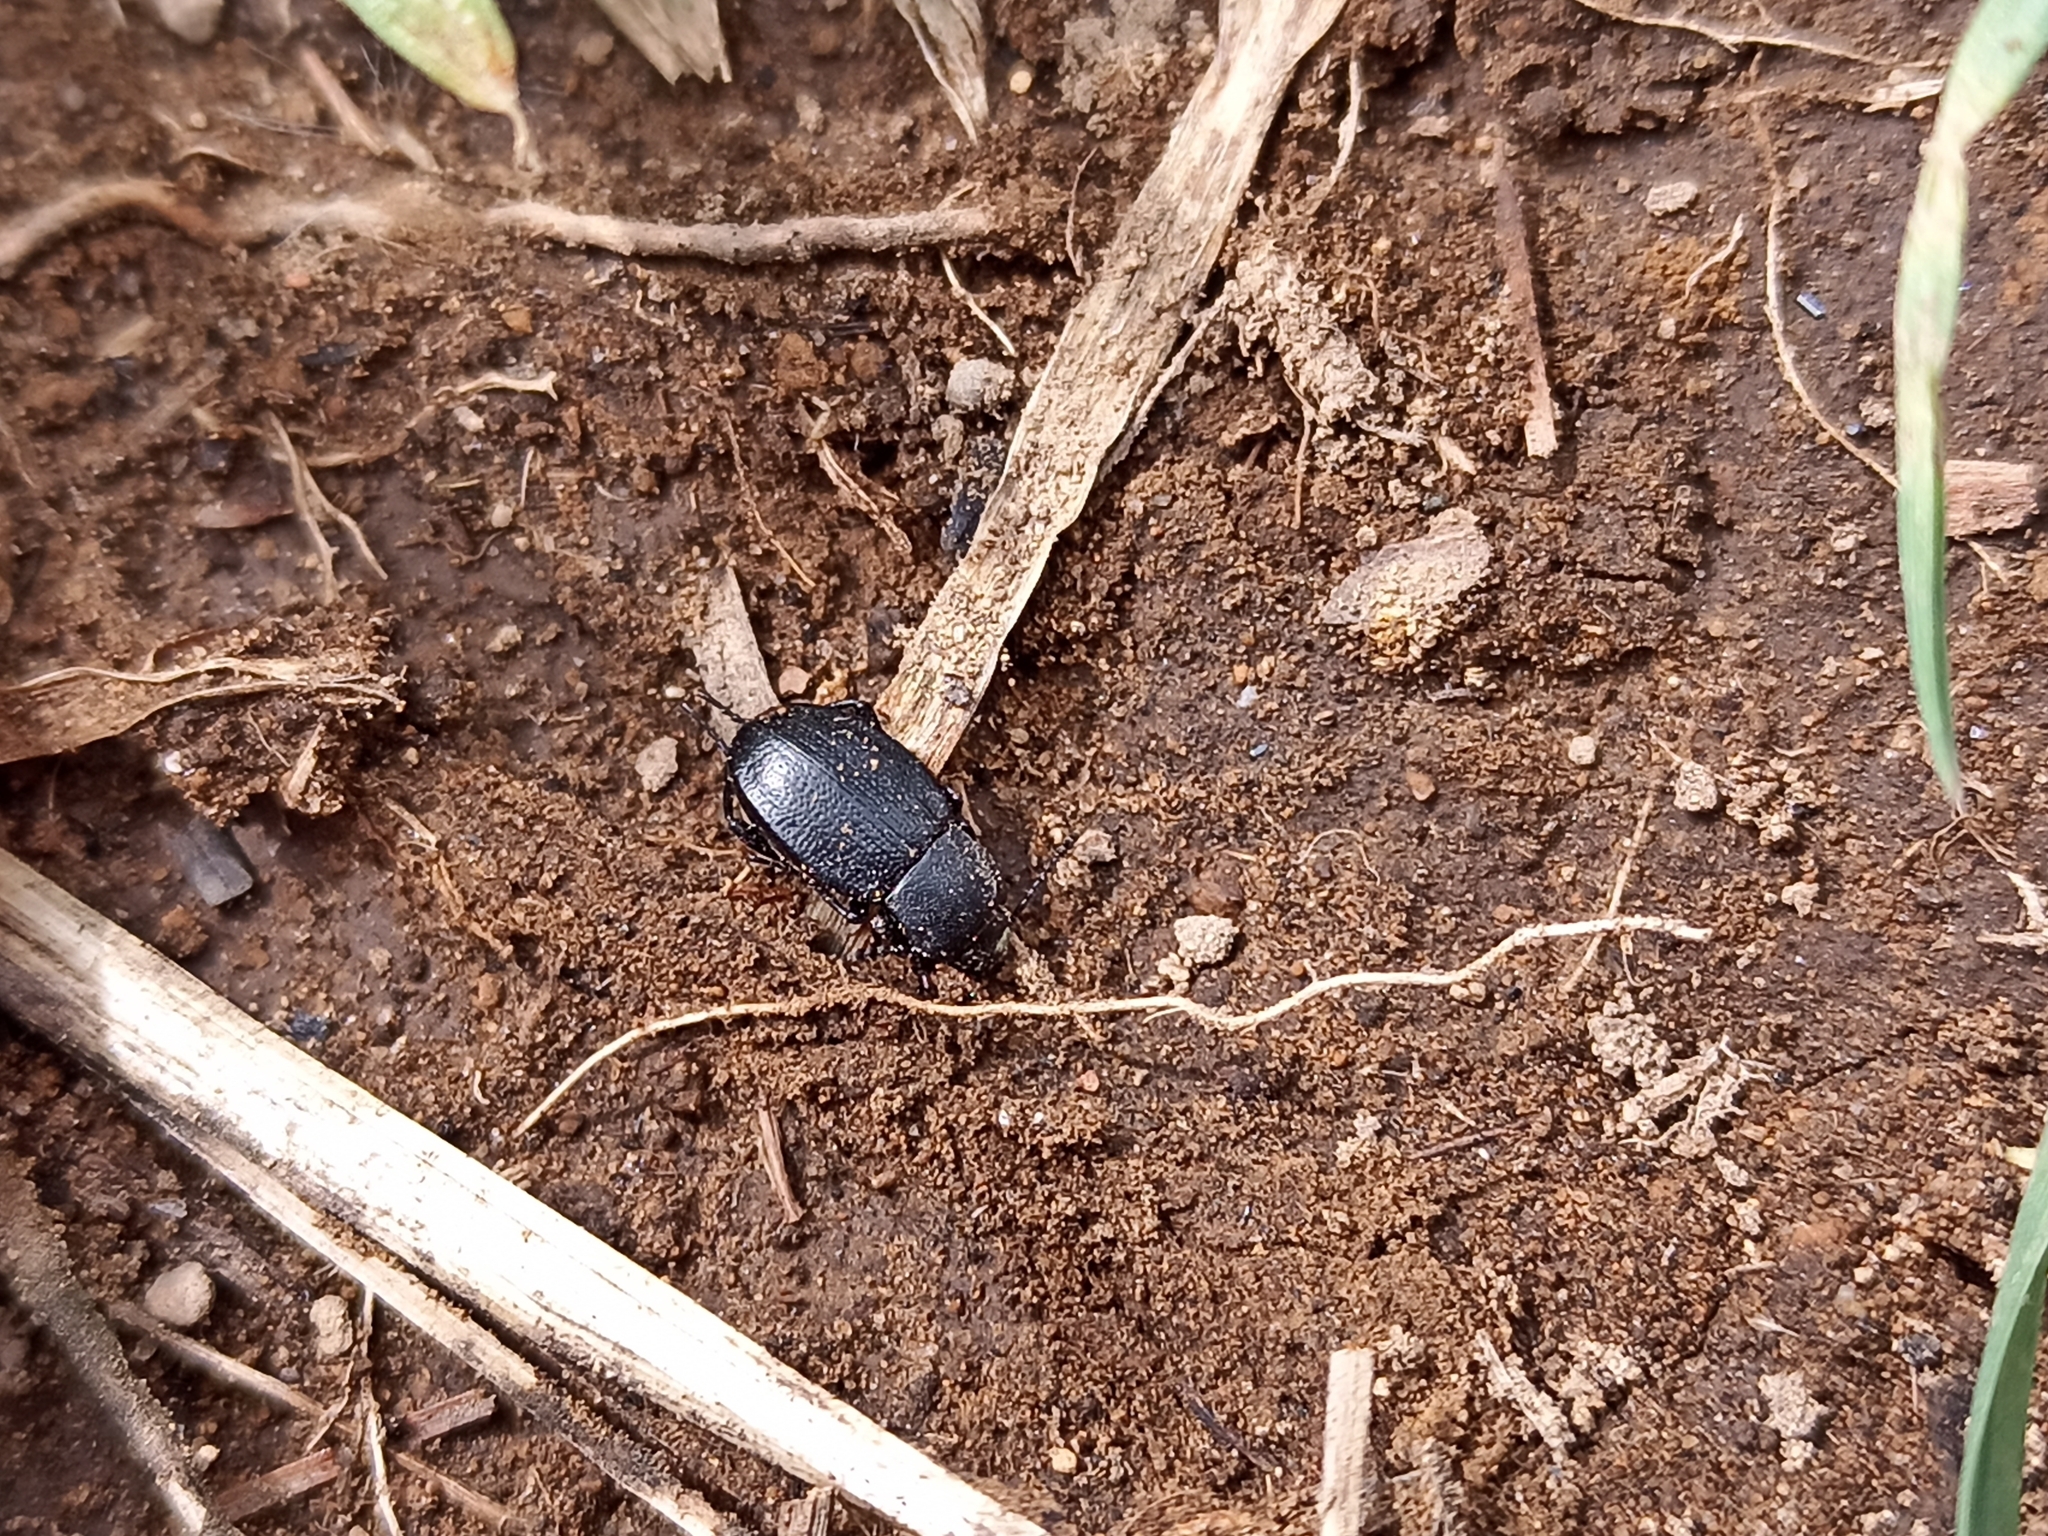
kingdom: Animalia
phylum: Arthropoda
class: Insecta
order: Coleoptera
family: Tenebrionidae
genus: Eleodes
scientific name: Eleodes curta
